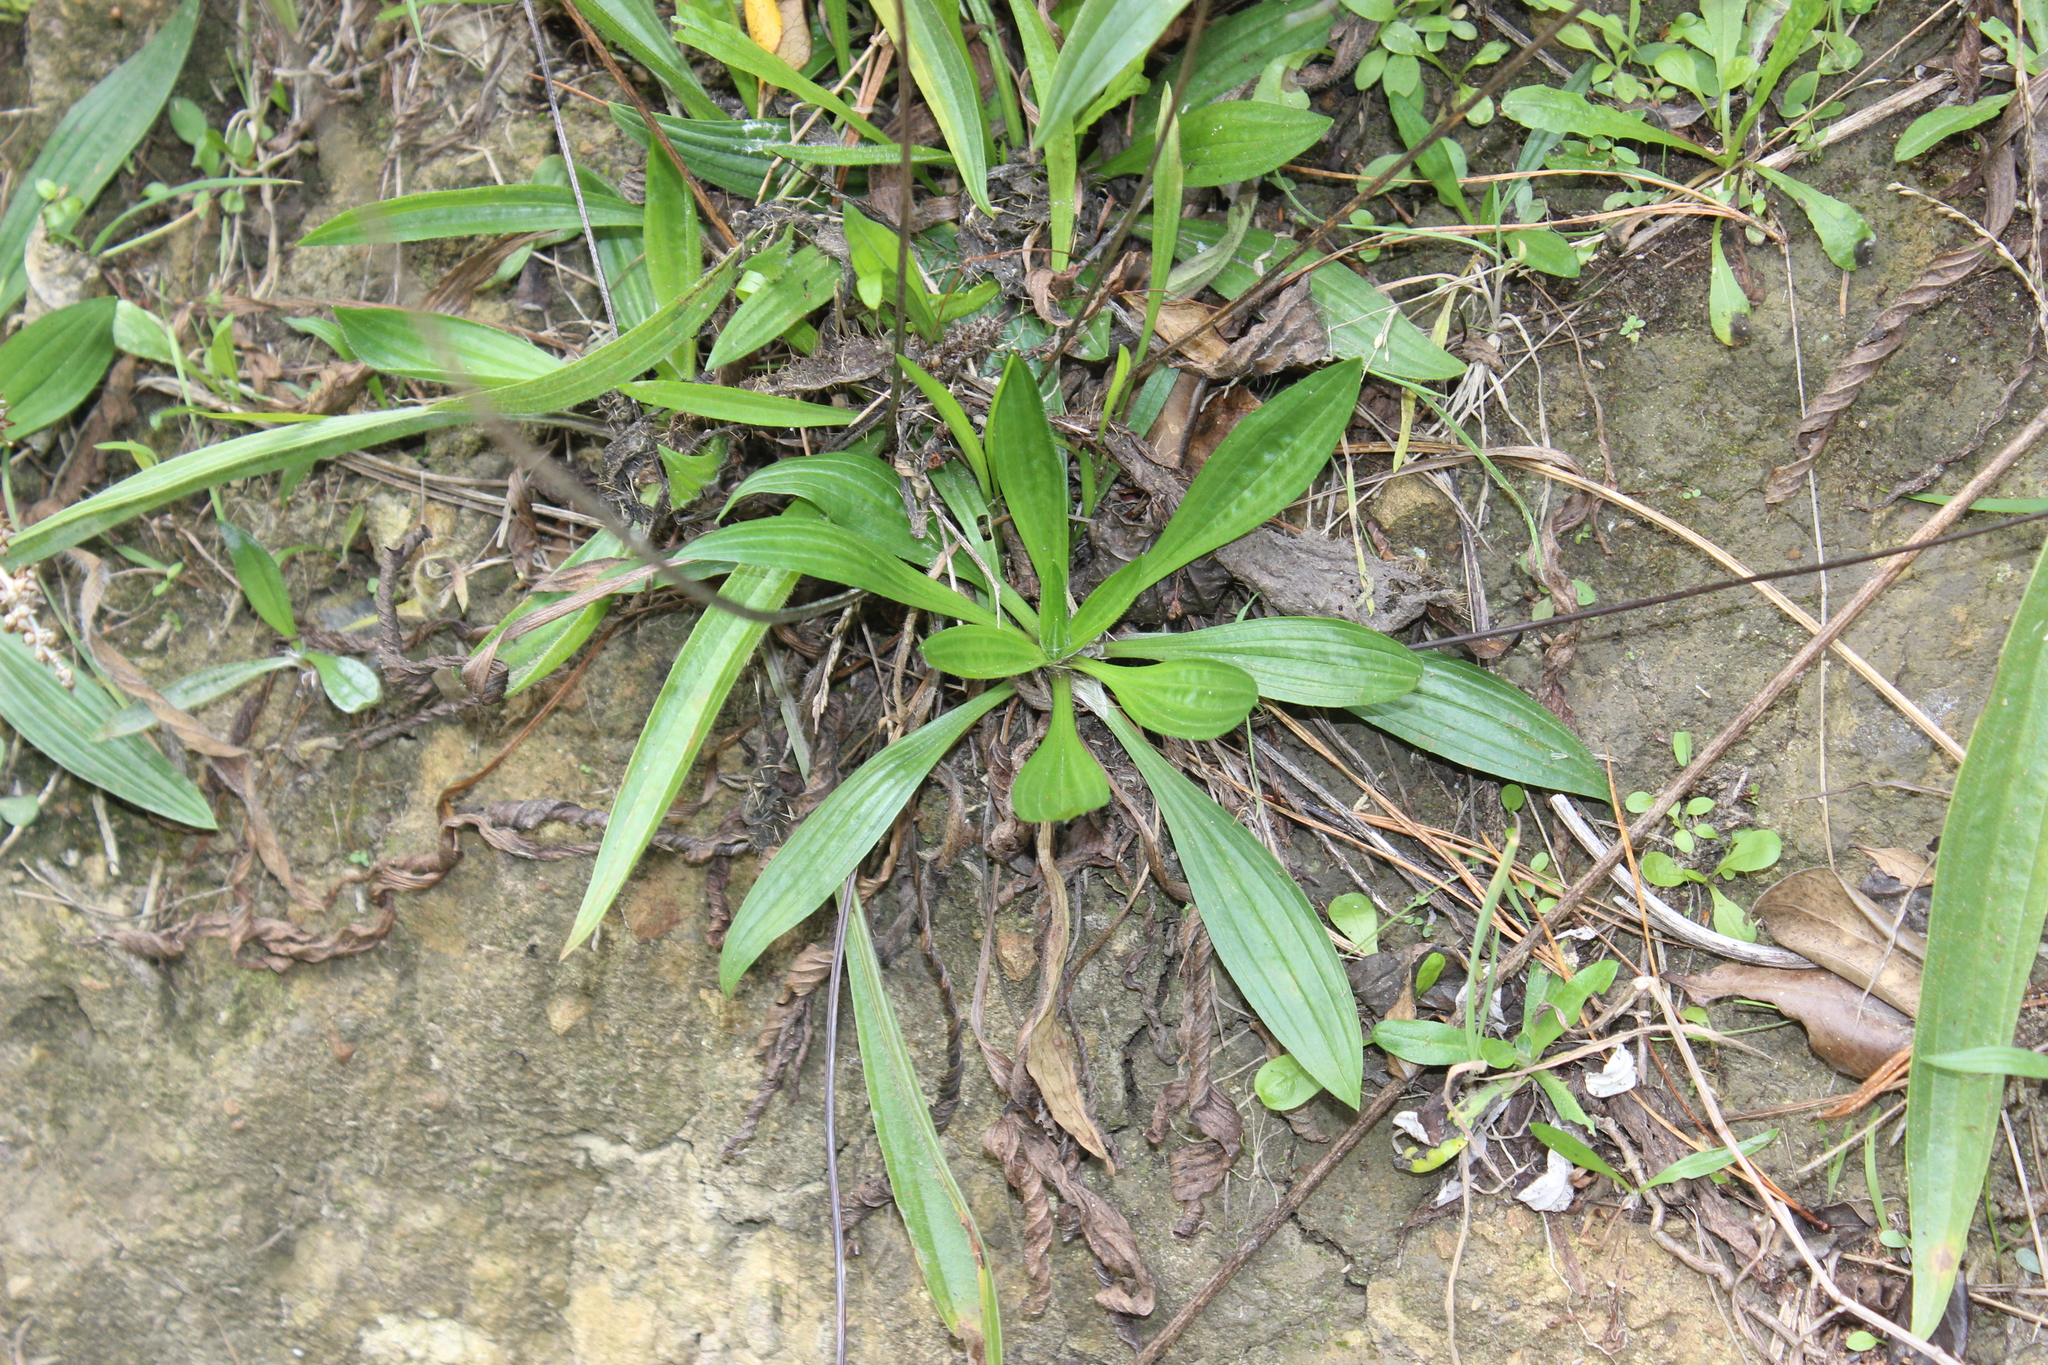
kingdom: Plantae
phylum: Tracheophyta
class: Magnoliopsida
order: Lamiales
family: Plantaginaceae
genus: Plantago
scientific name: Plantago lanceolata
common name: Ribwort plantain
